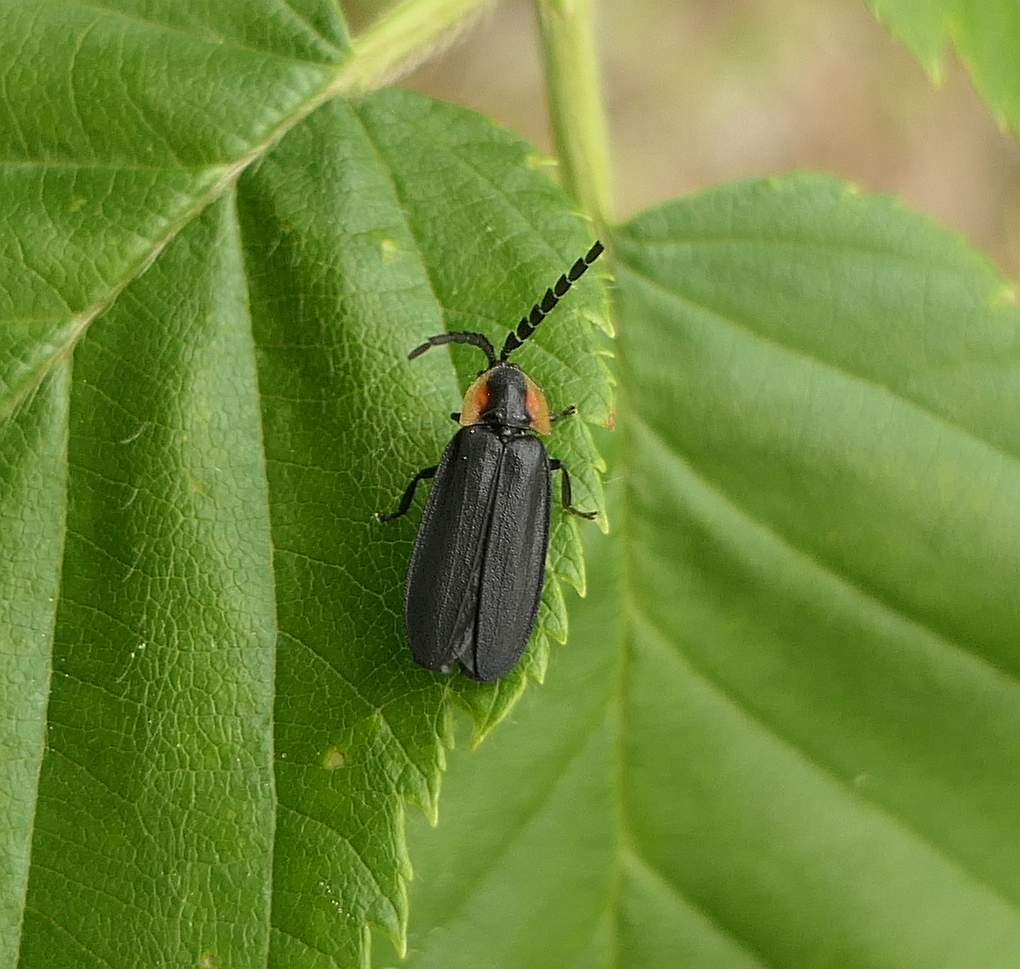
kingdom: Animalia
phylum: Arthropoda
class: Insecta
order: Coleoptera
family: Lampyridae
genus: Lucidota
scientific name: Lucidota atra
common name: Black firefly
